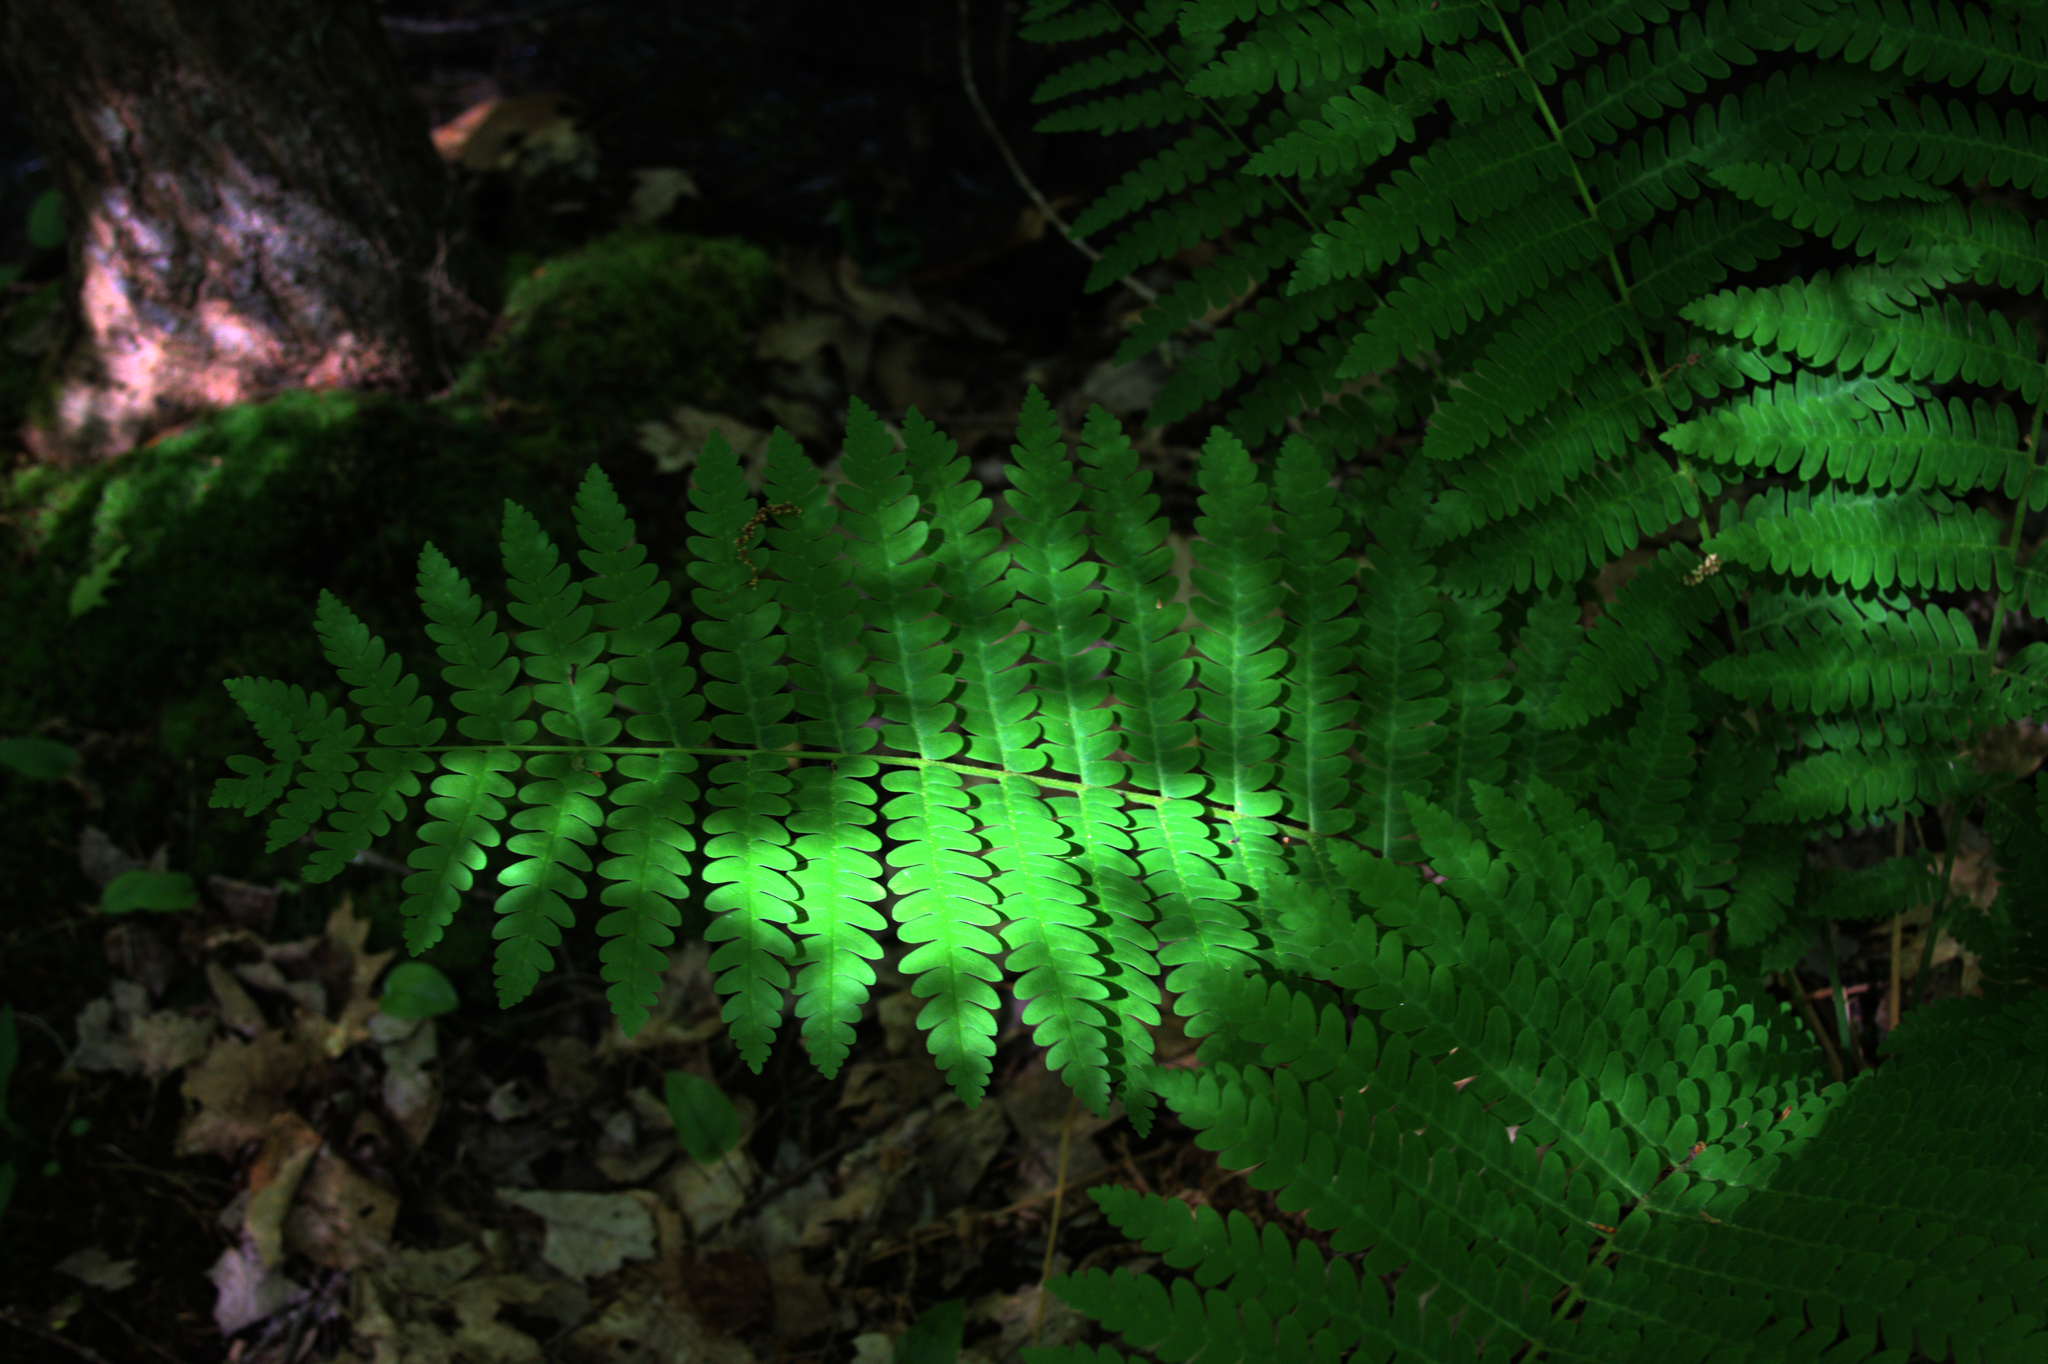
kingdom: Plantae
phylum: Tracheophyta
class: Polypodiopsida
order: Osmundales
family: Osmundaceae
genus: Claytosmunda
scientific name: Claytosmunda claytoniana
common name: Clayton's fern
